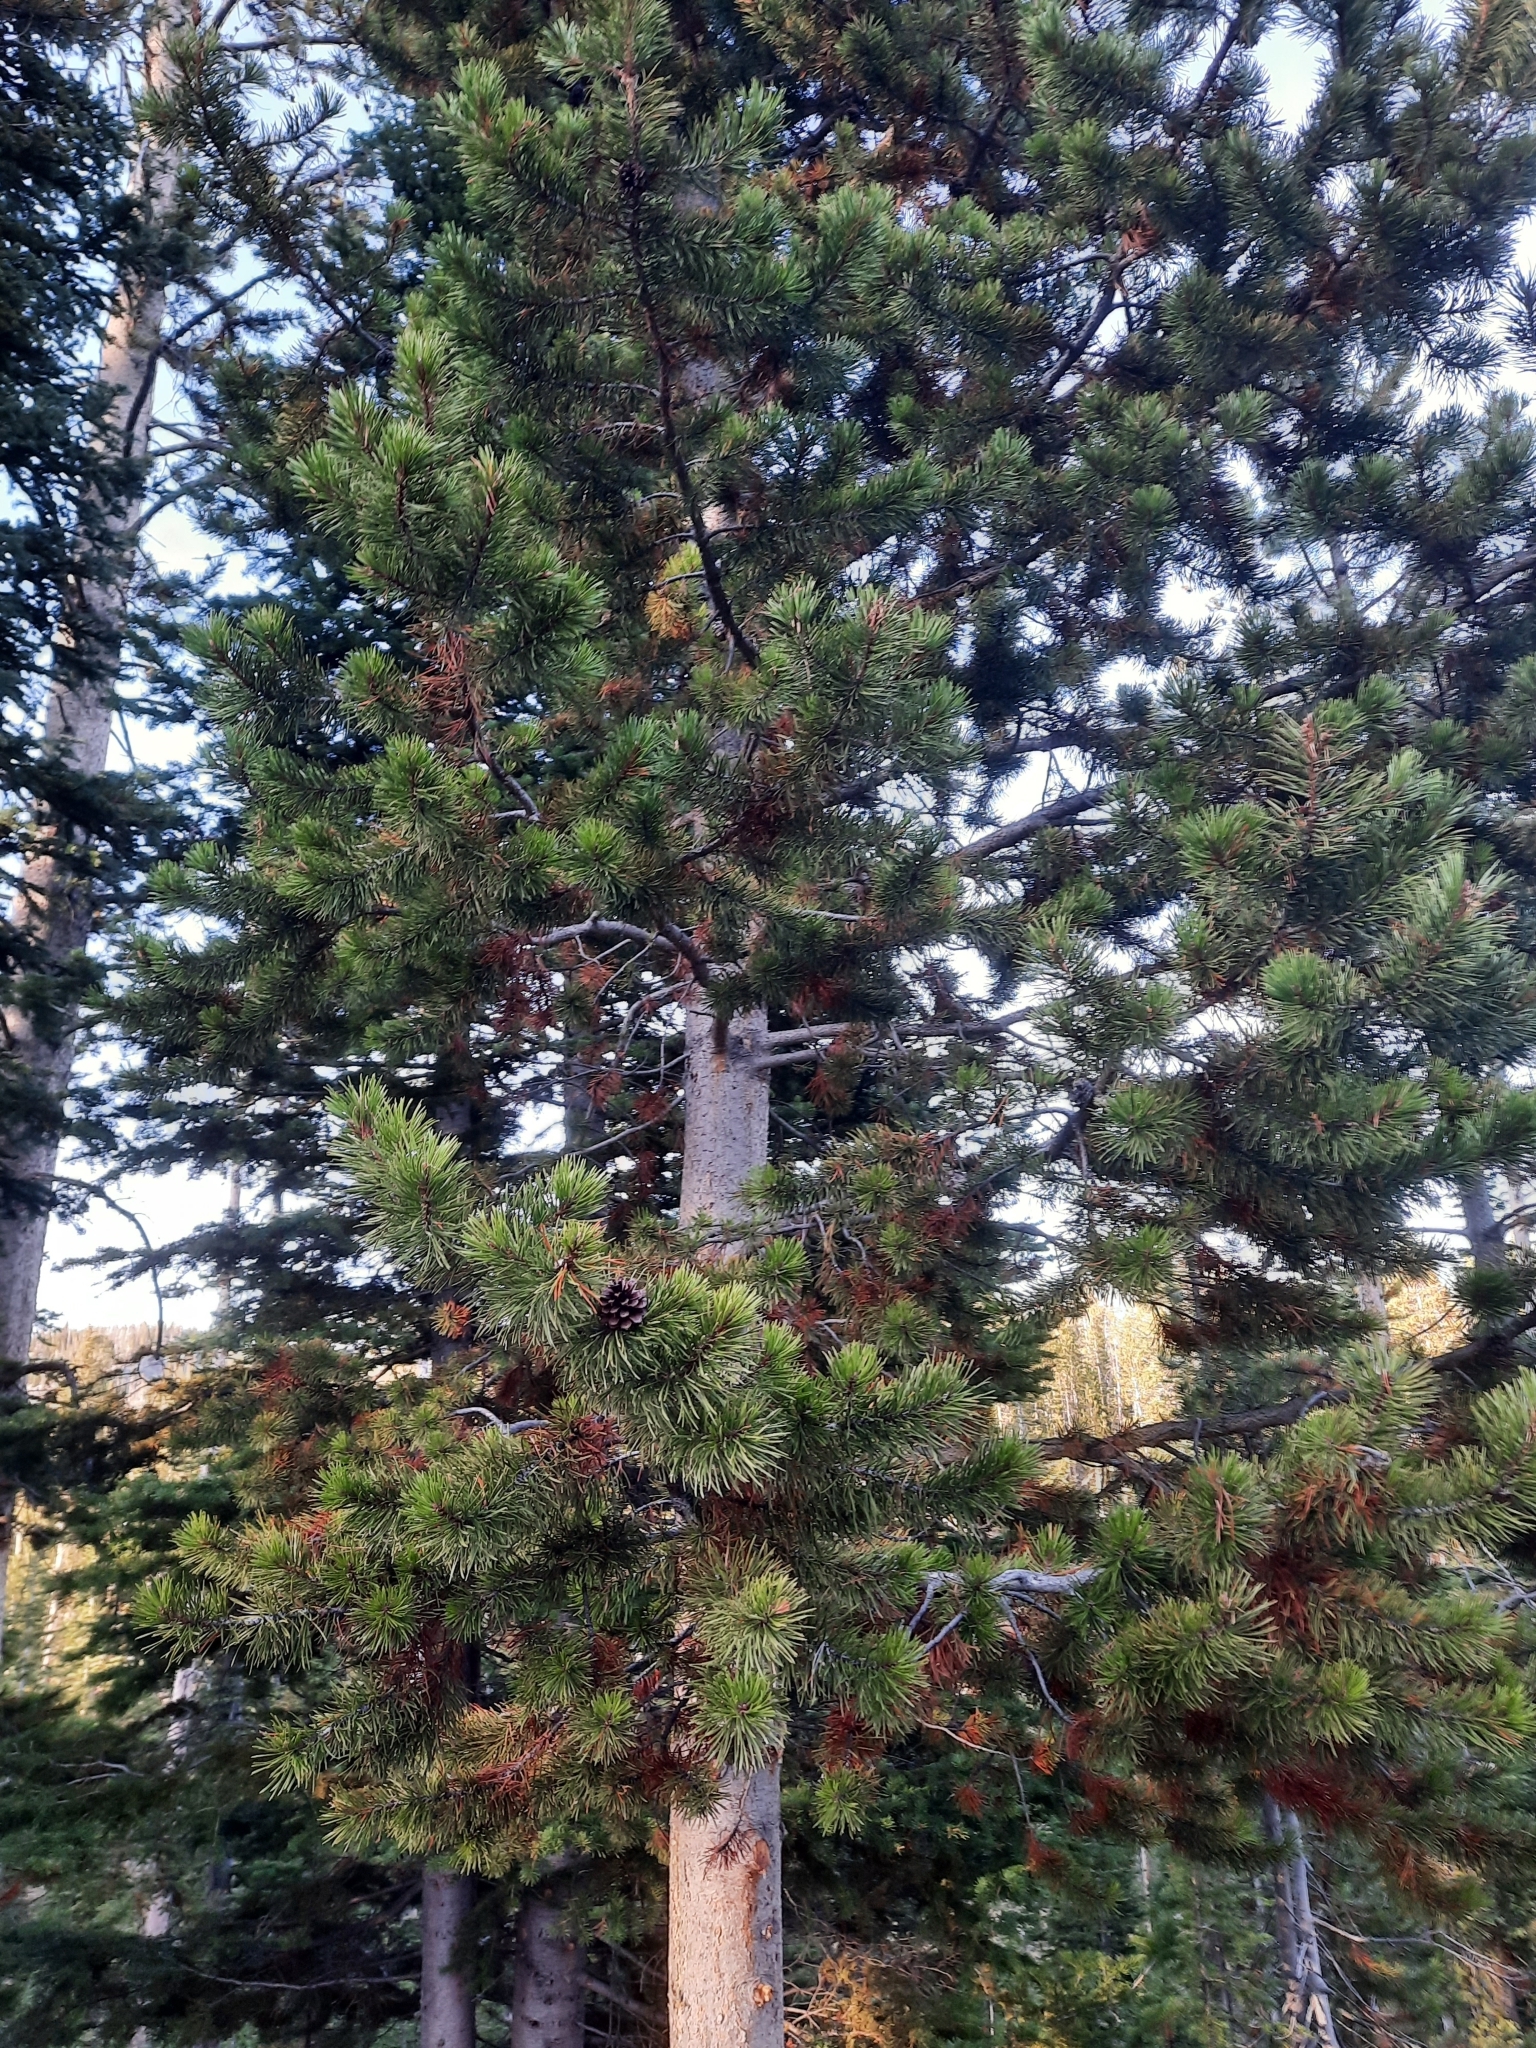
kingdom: Plantae
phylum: Tracheophyta
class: Pinopsida
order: Pinales
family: Pinaceae
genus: Pinus
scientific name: Pinus contorta
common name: Lodgepole pine
